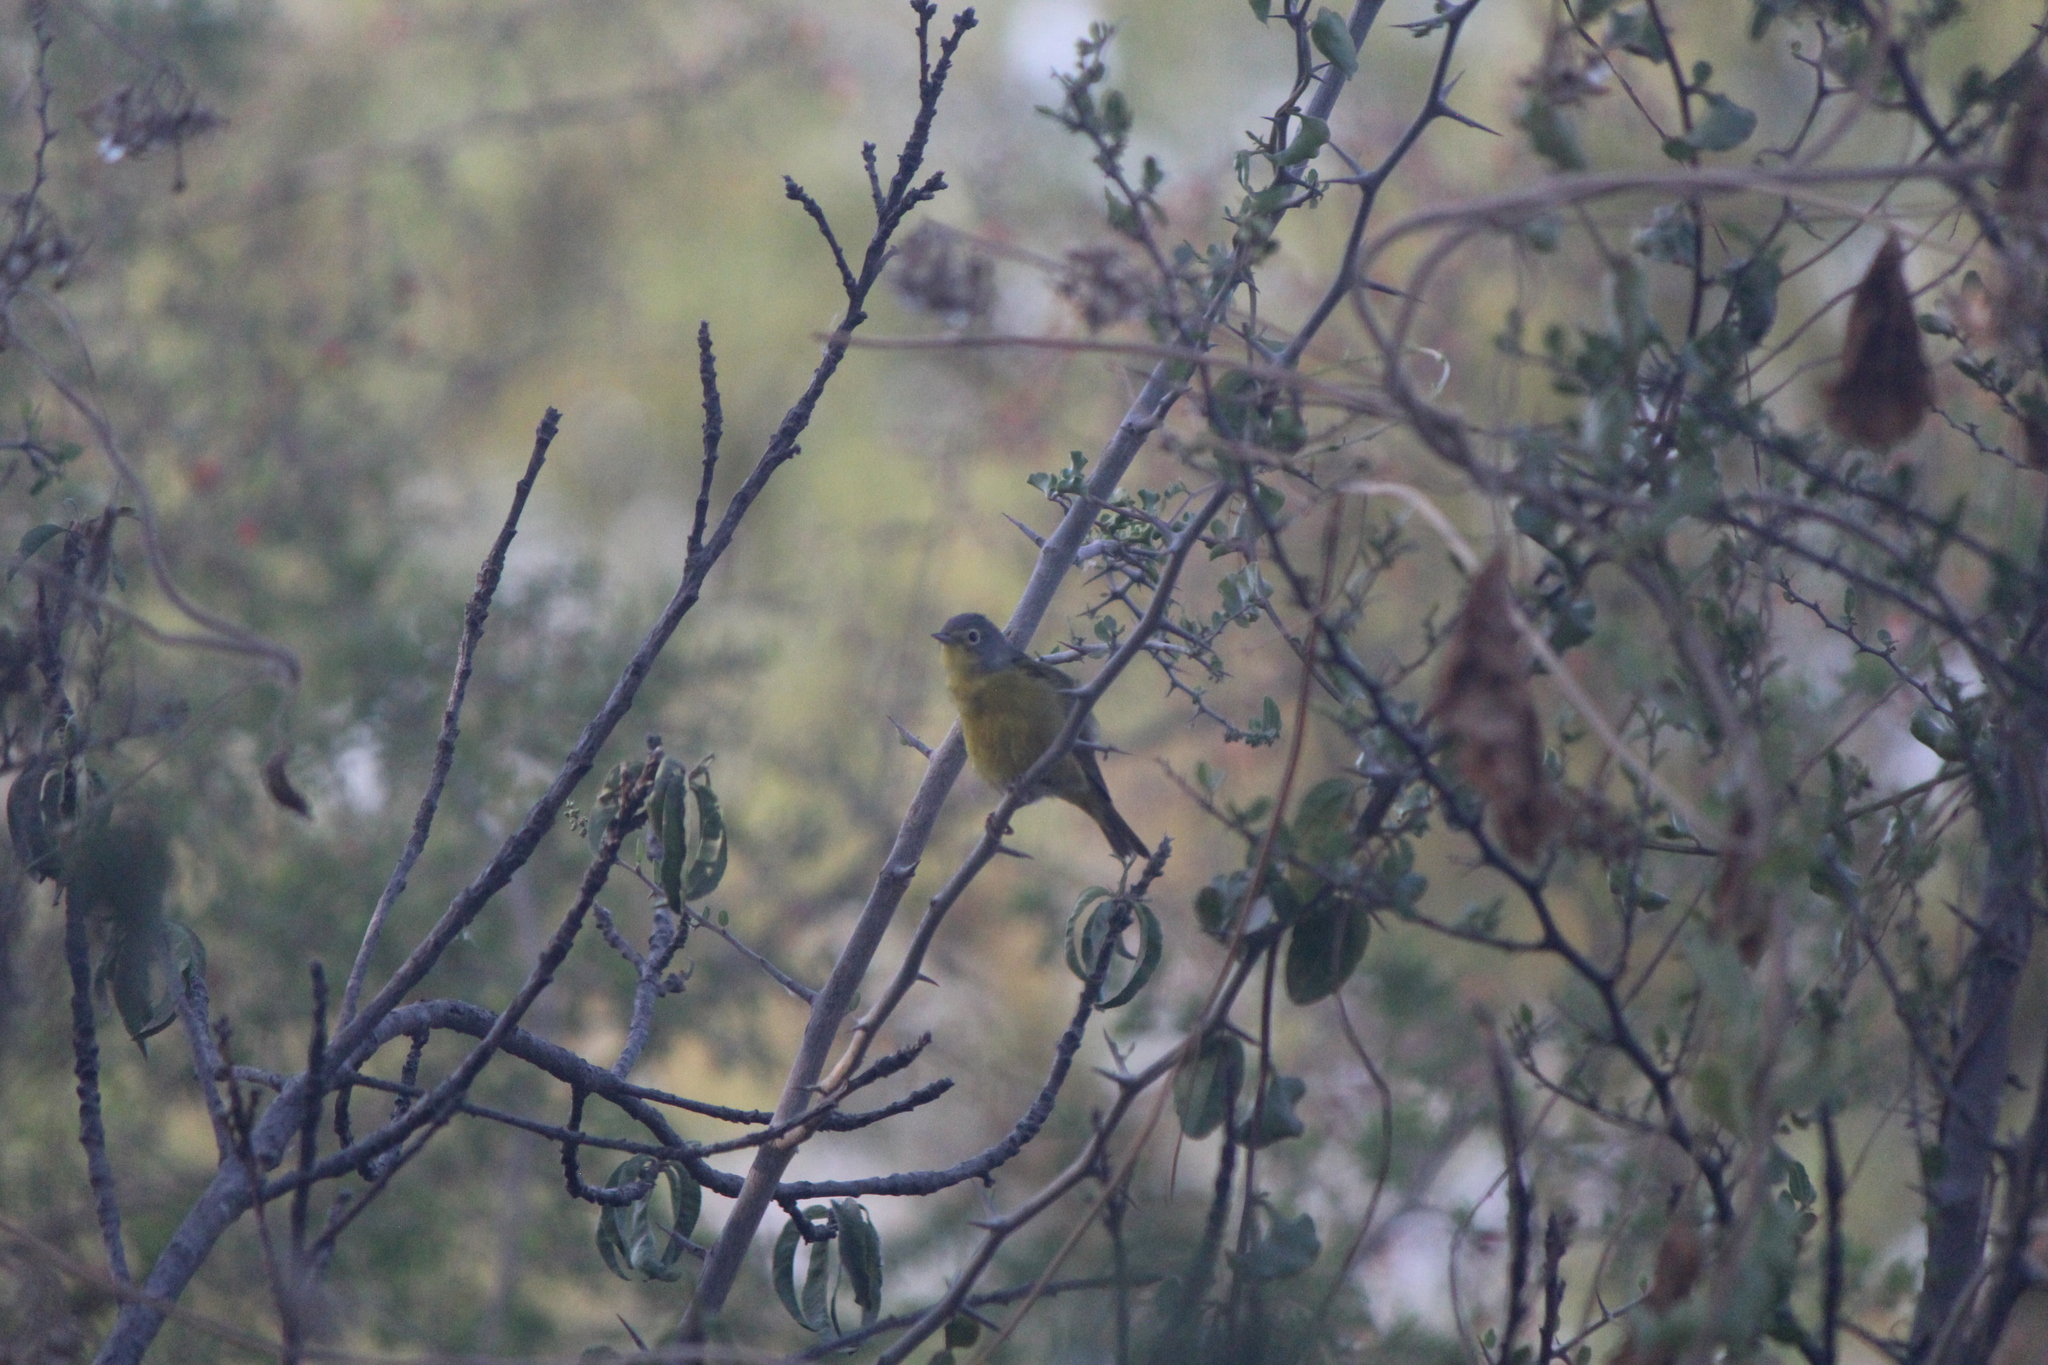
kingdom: Animalia
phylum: Chordata
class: Aves
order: Passeriformes
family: Parulidae
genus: Leiothlypis
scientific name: Leiothlypis ruficapilla
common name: Nashville warbler
